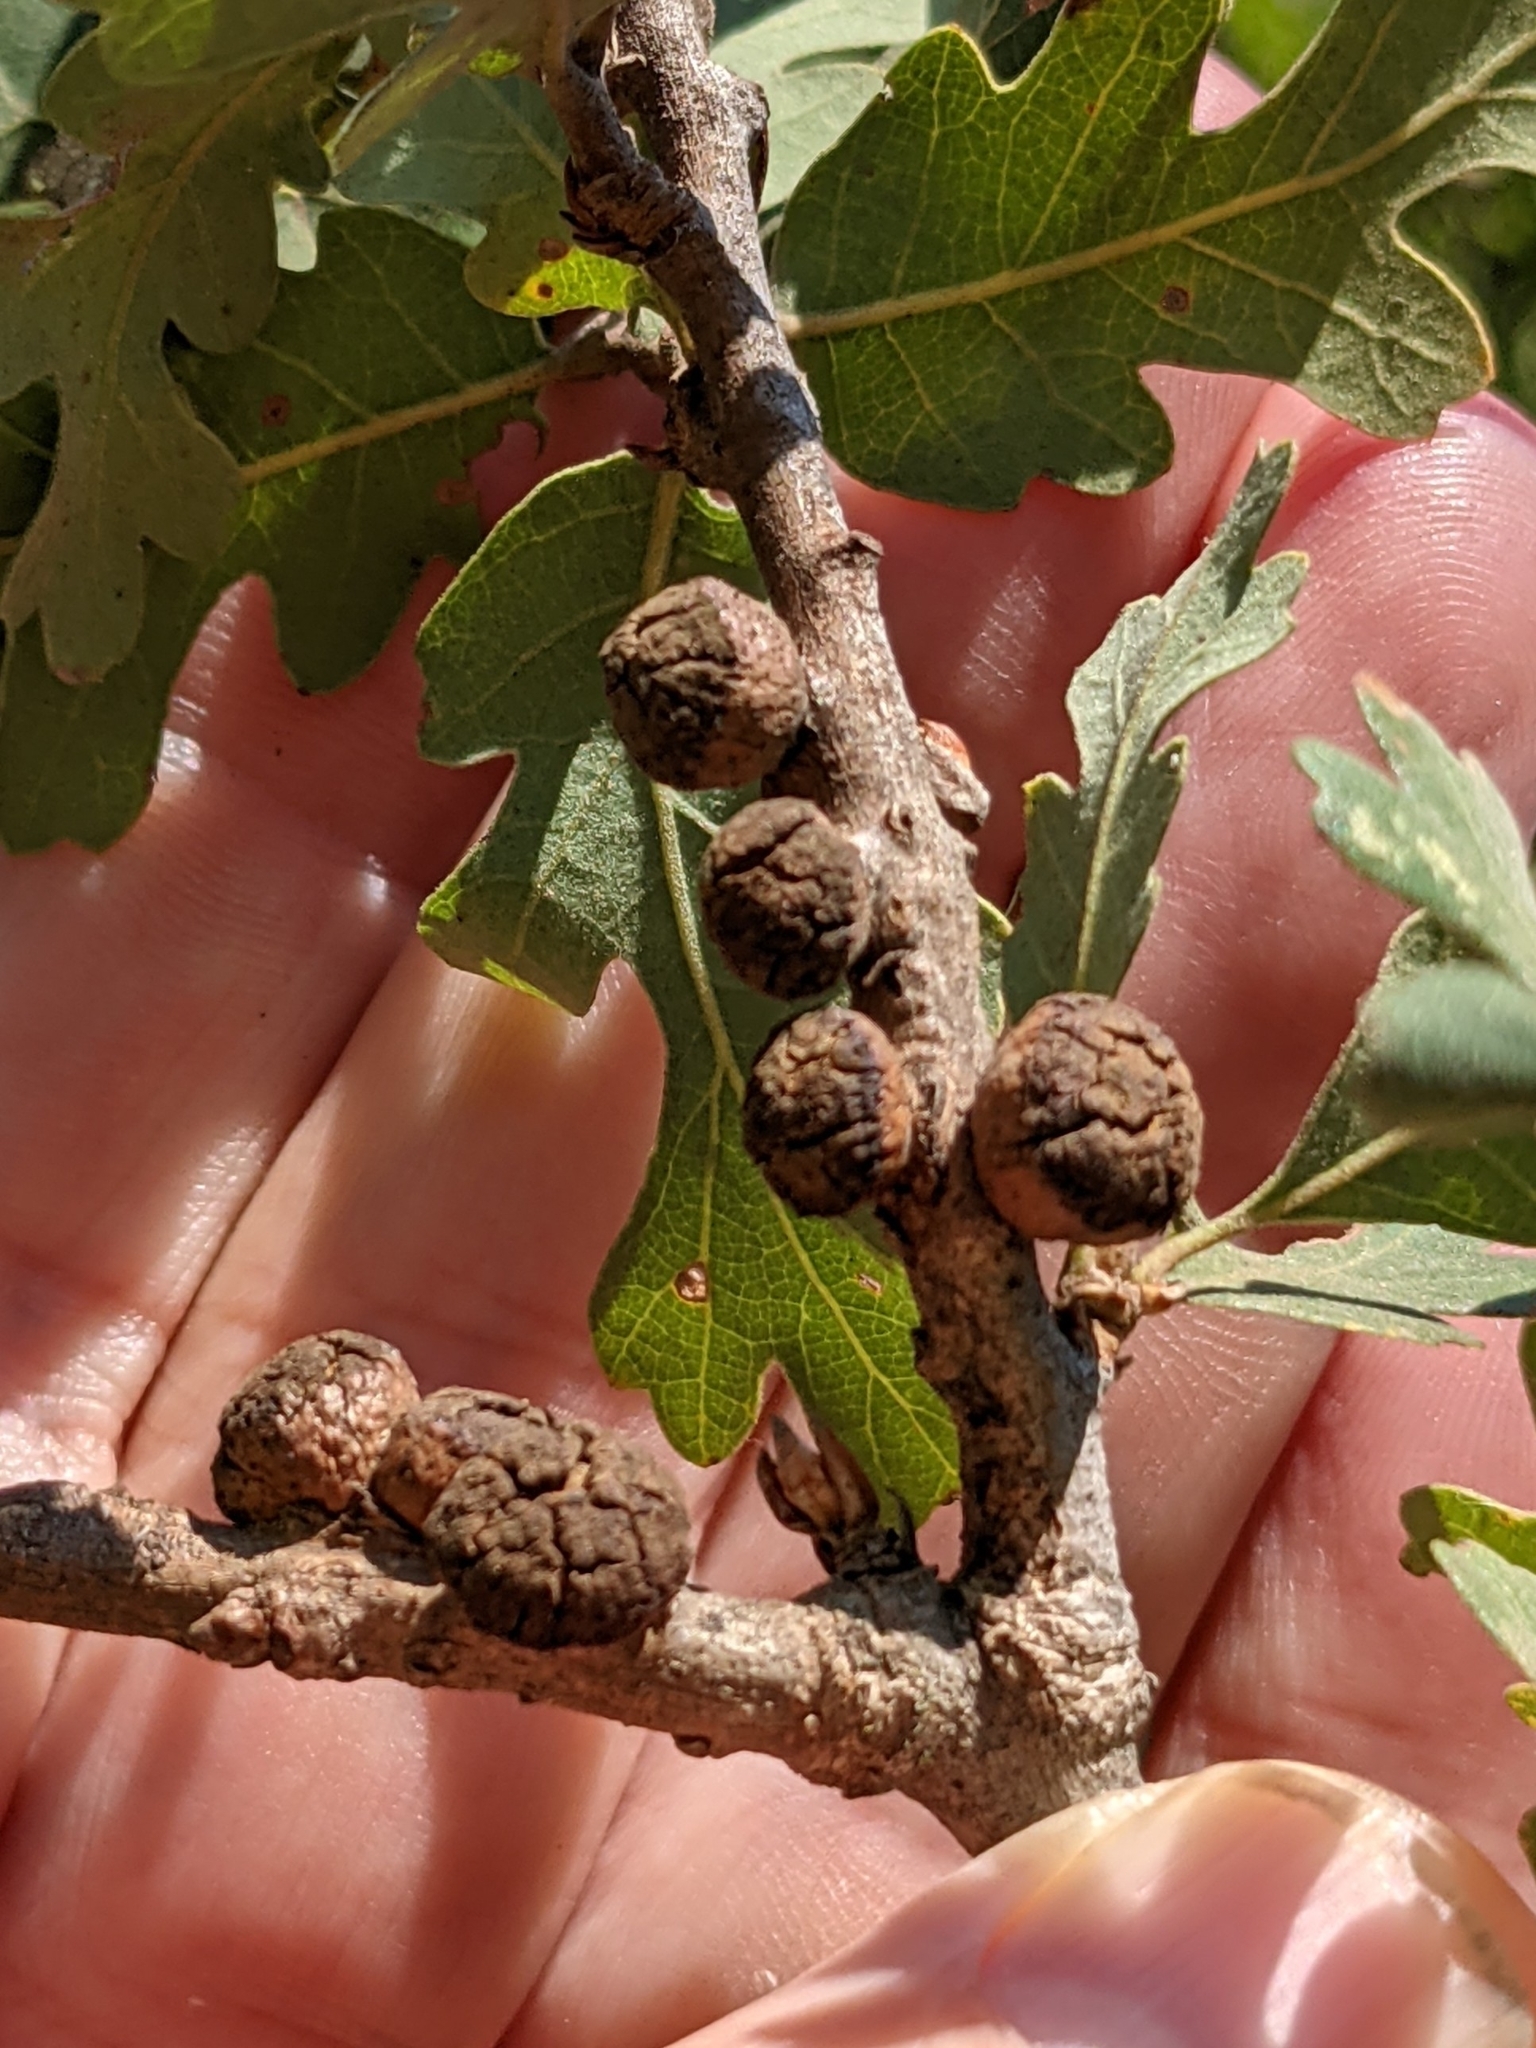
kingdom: Animalia
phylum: Arthropoda
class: Insecta
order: Hymenoptera
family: Cynipidae
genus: Disholcaspis
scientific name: Disholcaspis
